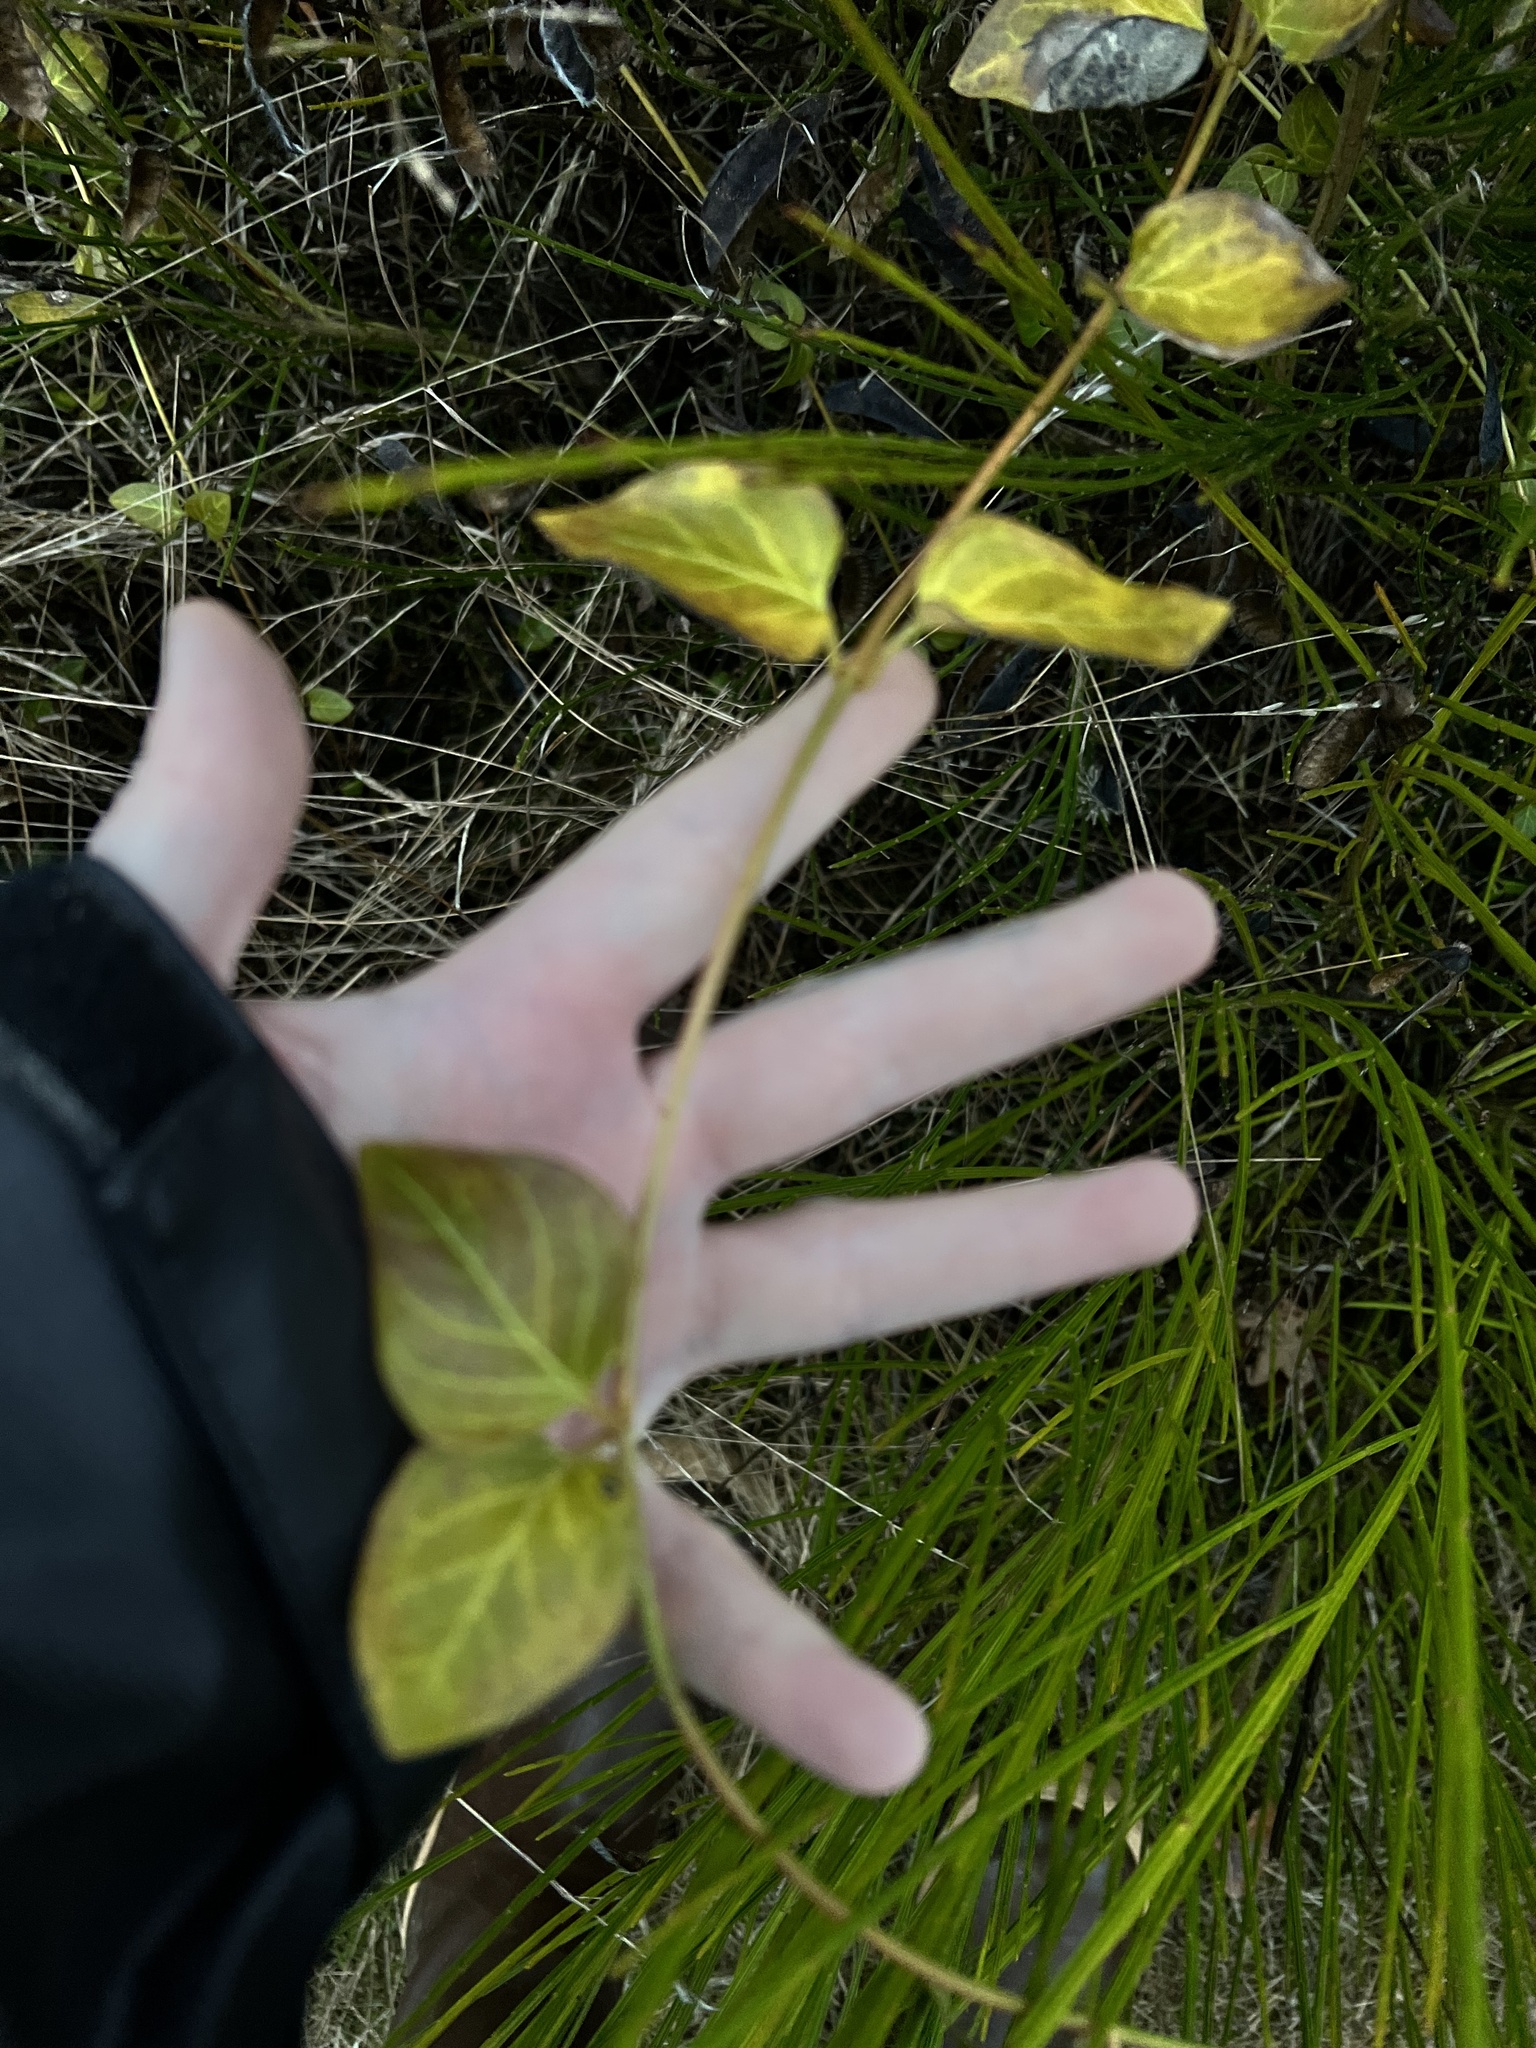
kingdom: Plantae
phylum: Tracheophyta
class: Magnoliopsida
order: Gentianales
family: Apocynaceae
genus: Vinca
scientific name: Vinca major
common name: Greater periwinkle
